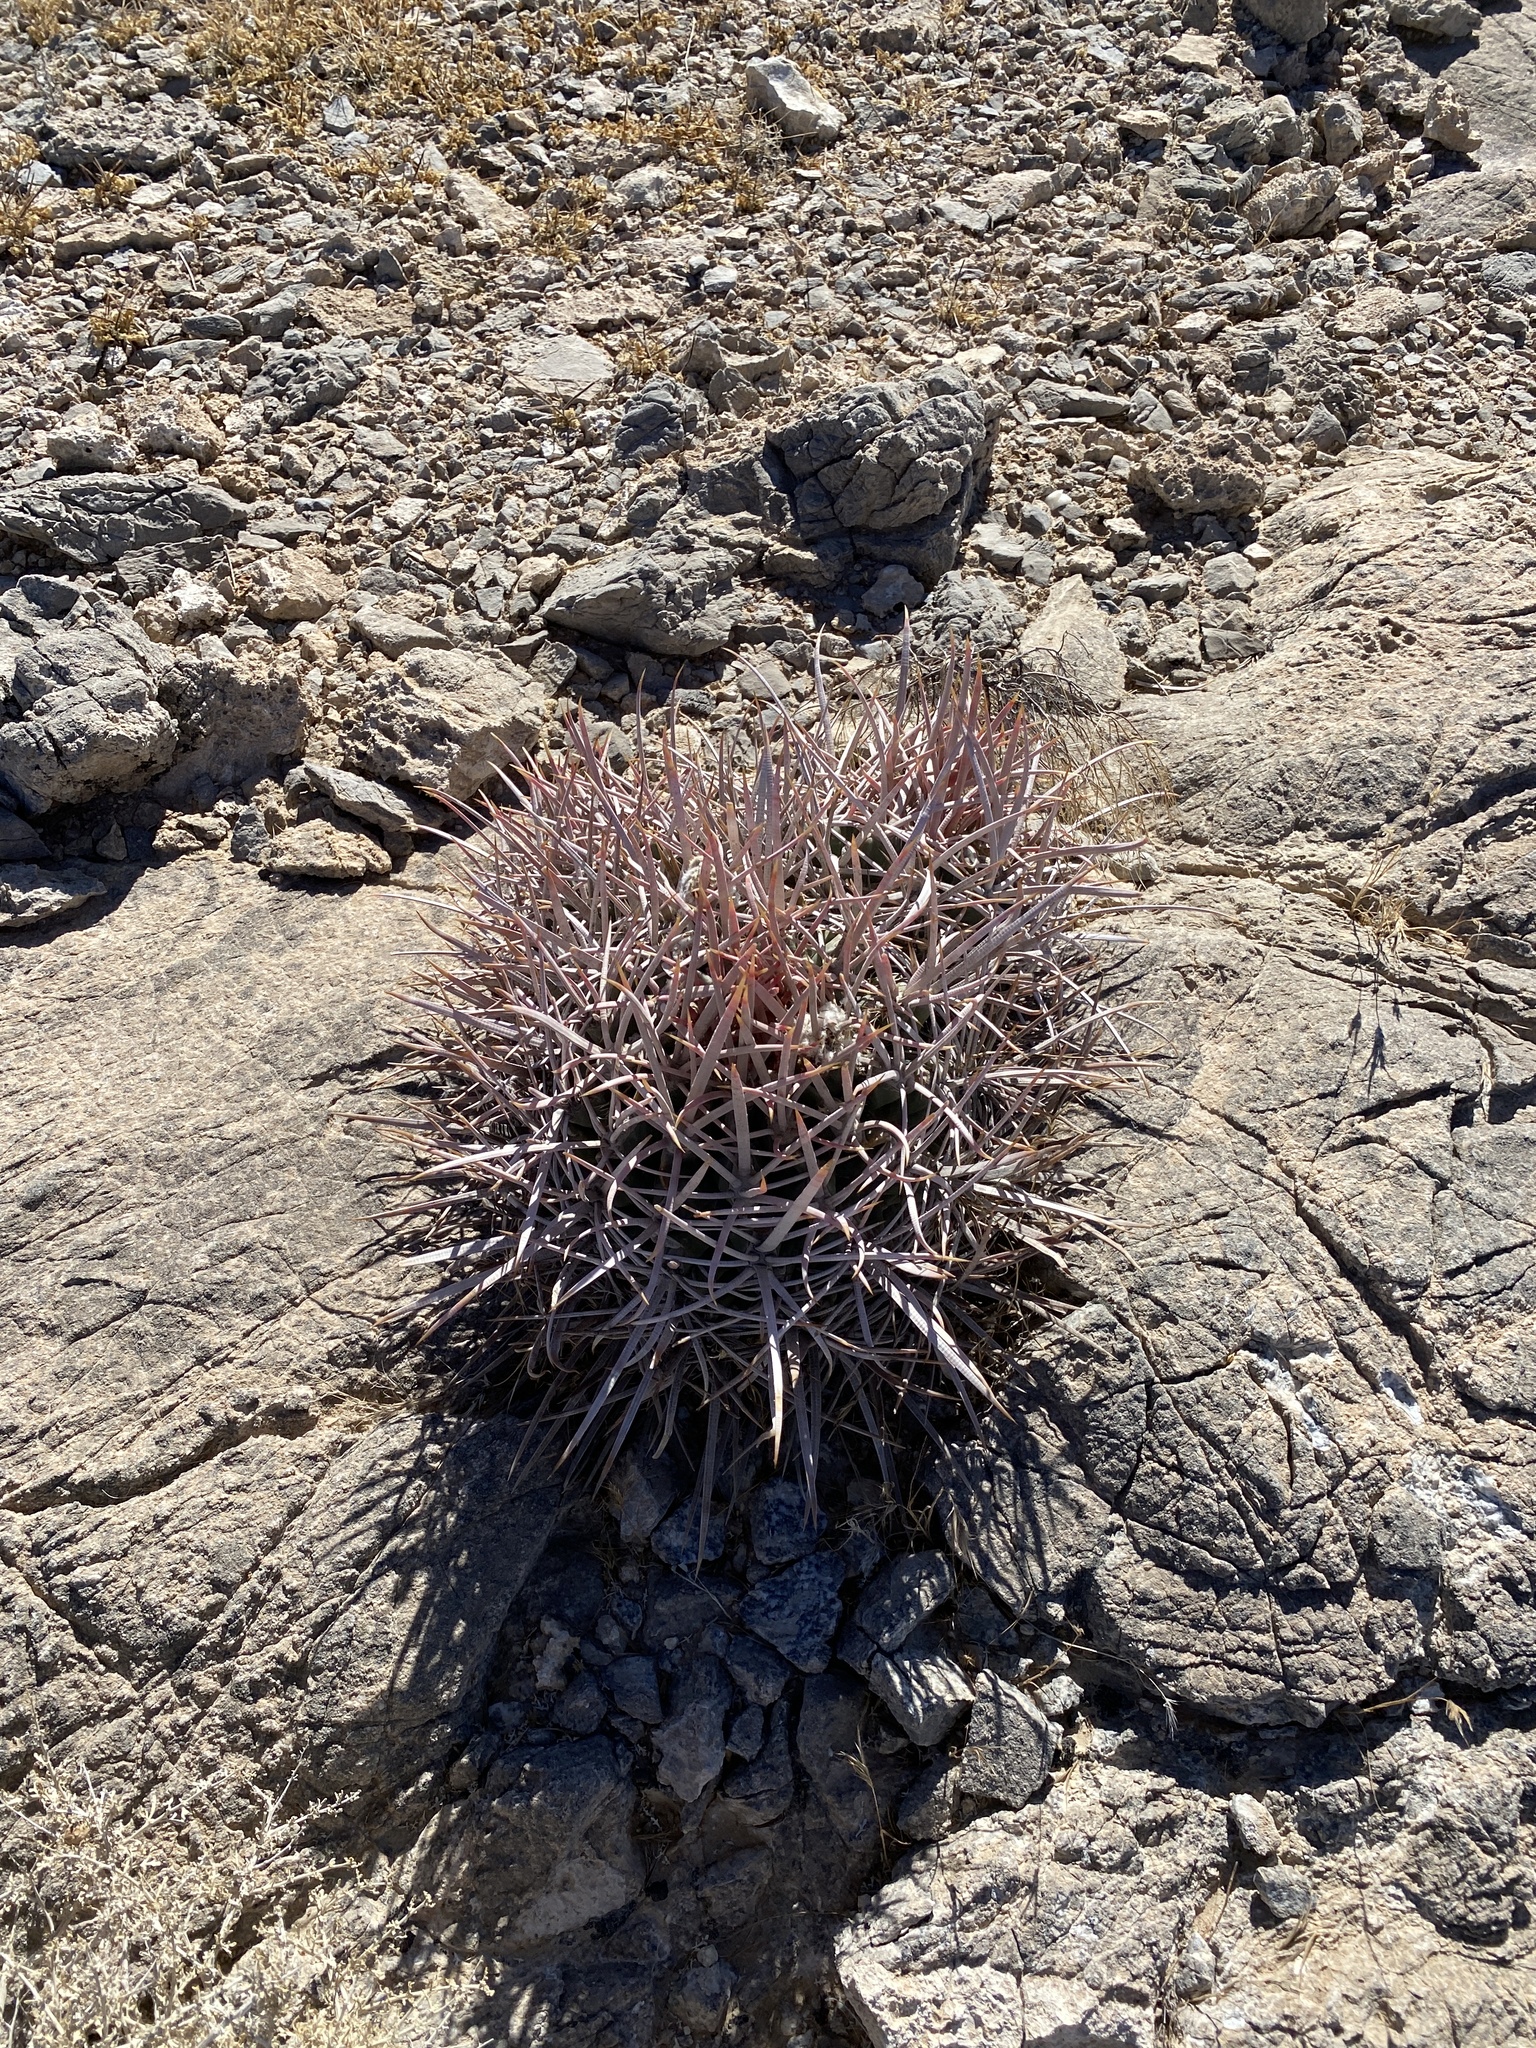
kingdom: Plantae
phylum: Tracheophyta
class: Magnoliopsida
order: Caryophyllales
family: Cactaceae
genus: Echinocactus
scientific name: Echinocactus polycephalus
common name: Cottontop cactus
